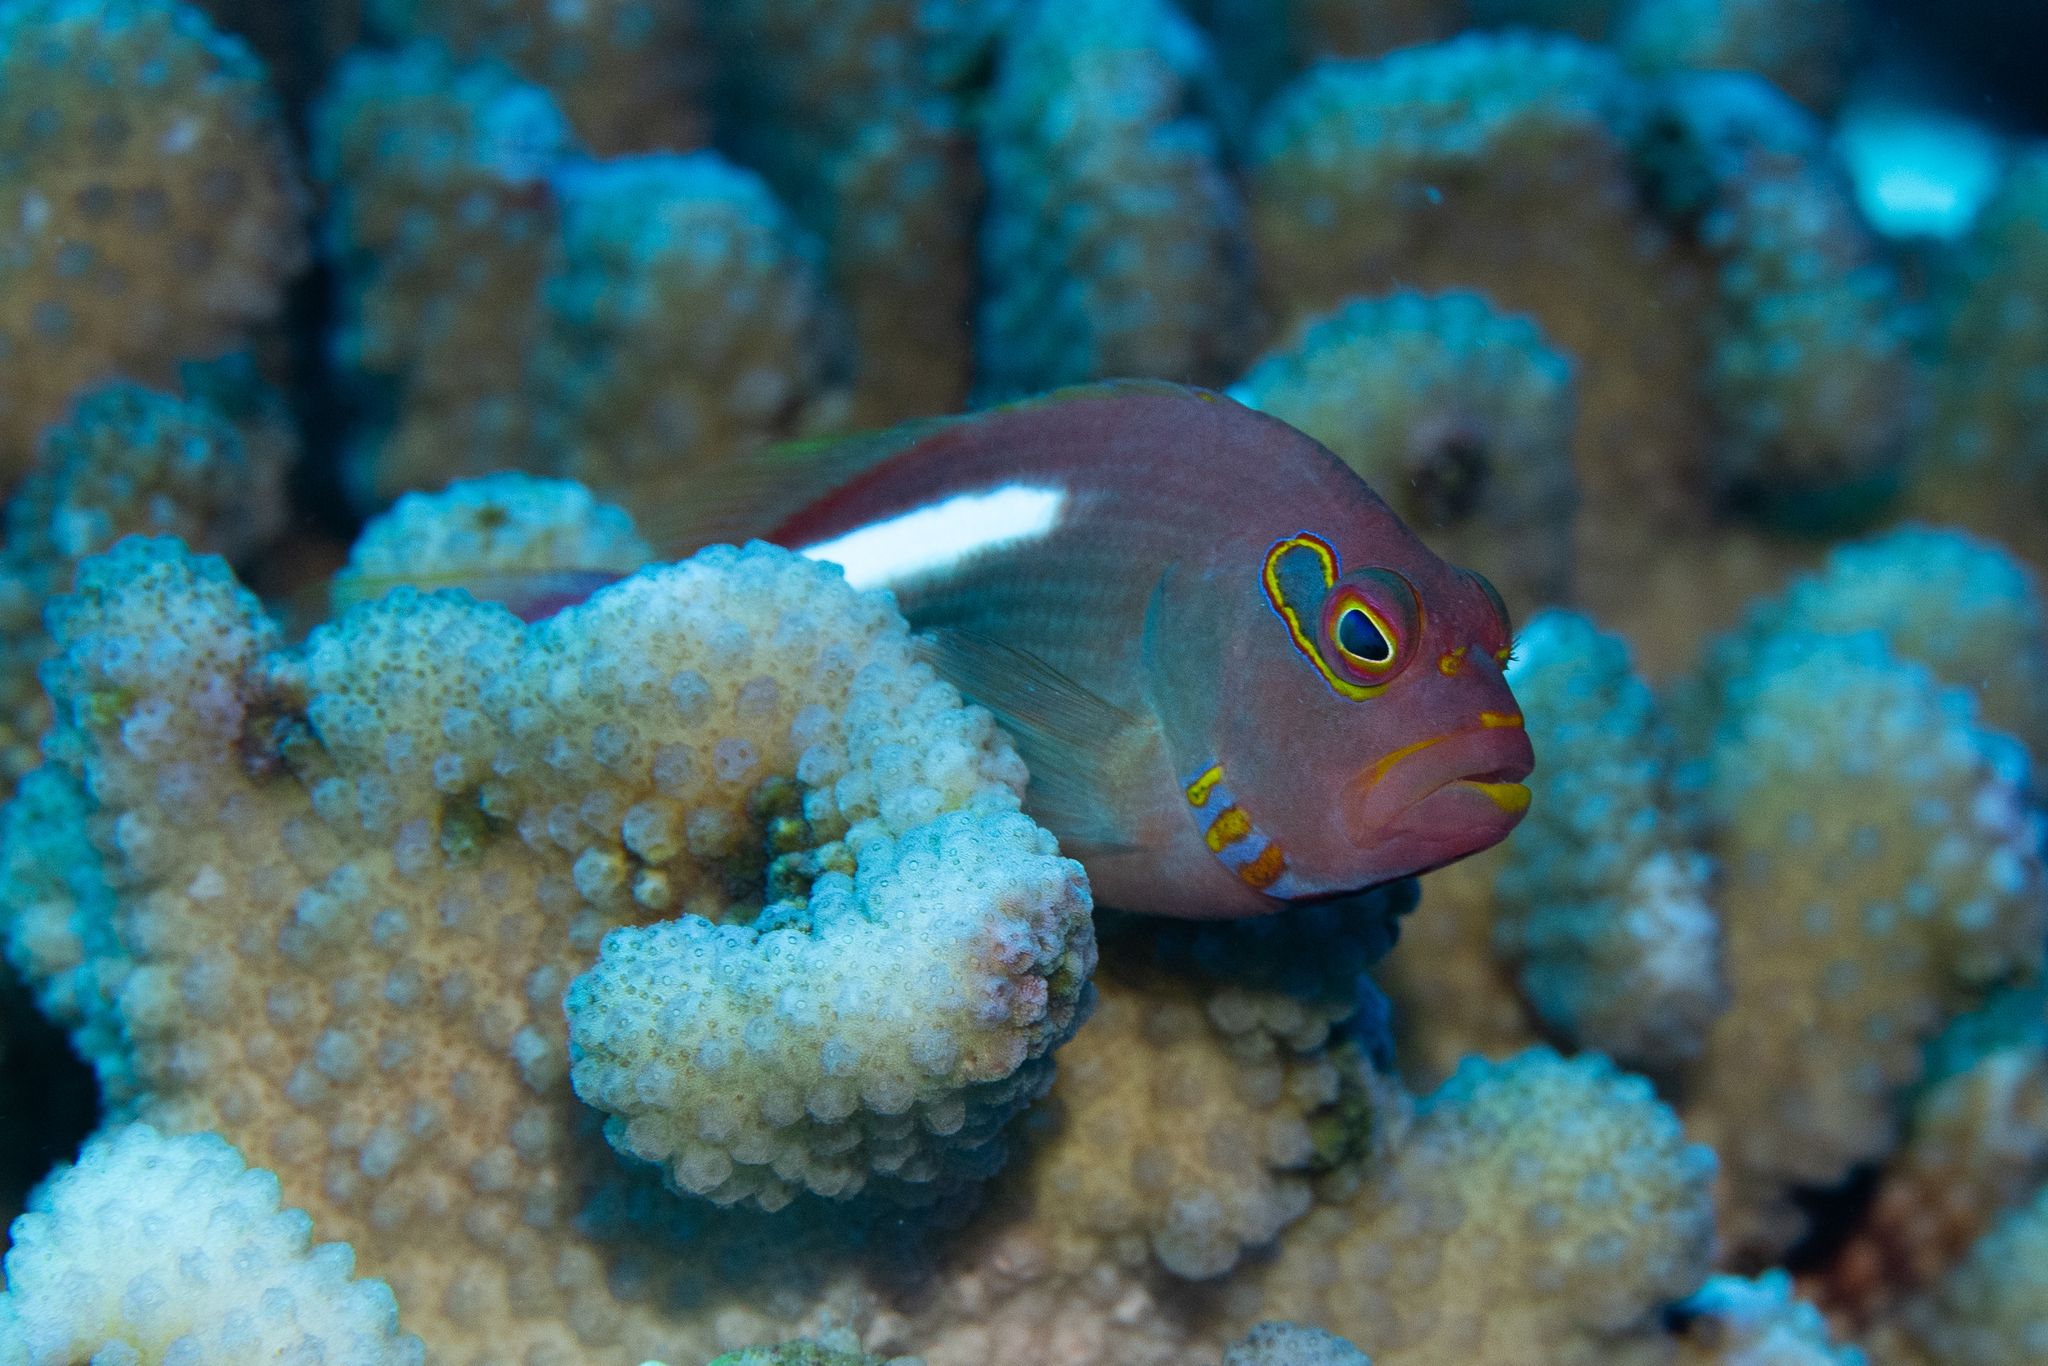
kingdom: Animalia
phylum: Chordata
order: Perciformes
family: Cirrhitidae
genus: Paracirrhites
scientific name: Paracirrhites arcatus
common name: Arc-eye hawkfish
